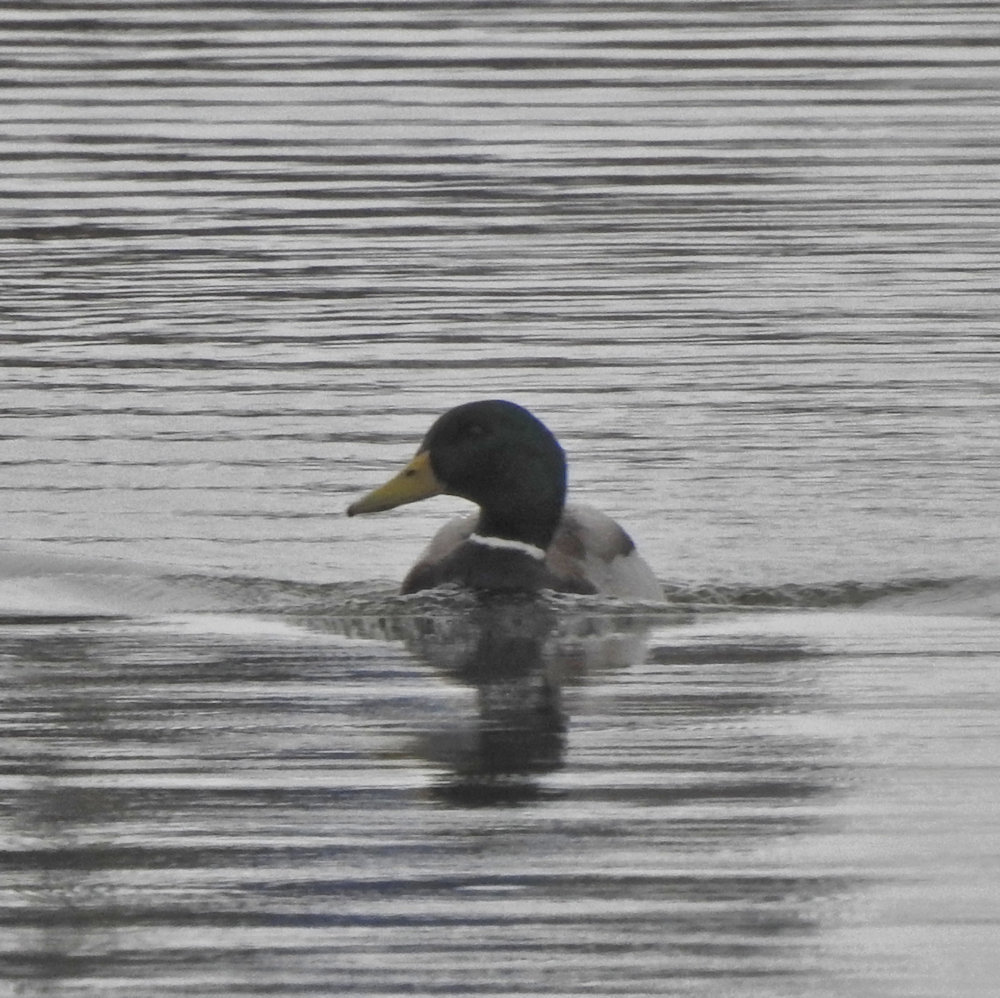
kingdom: Animalia
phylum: Chordata
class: Aves
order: Anseriformes
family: Anatidae
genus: Anas
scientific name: Anas platyrhynchos
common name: Mallard
